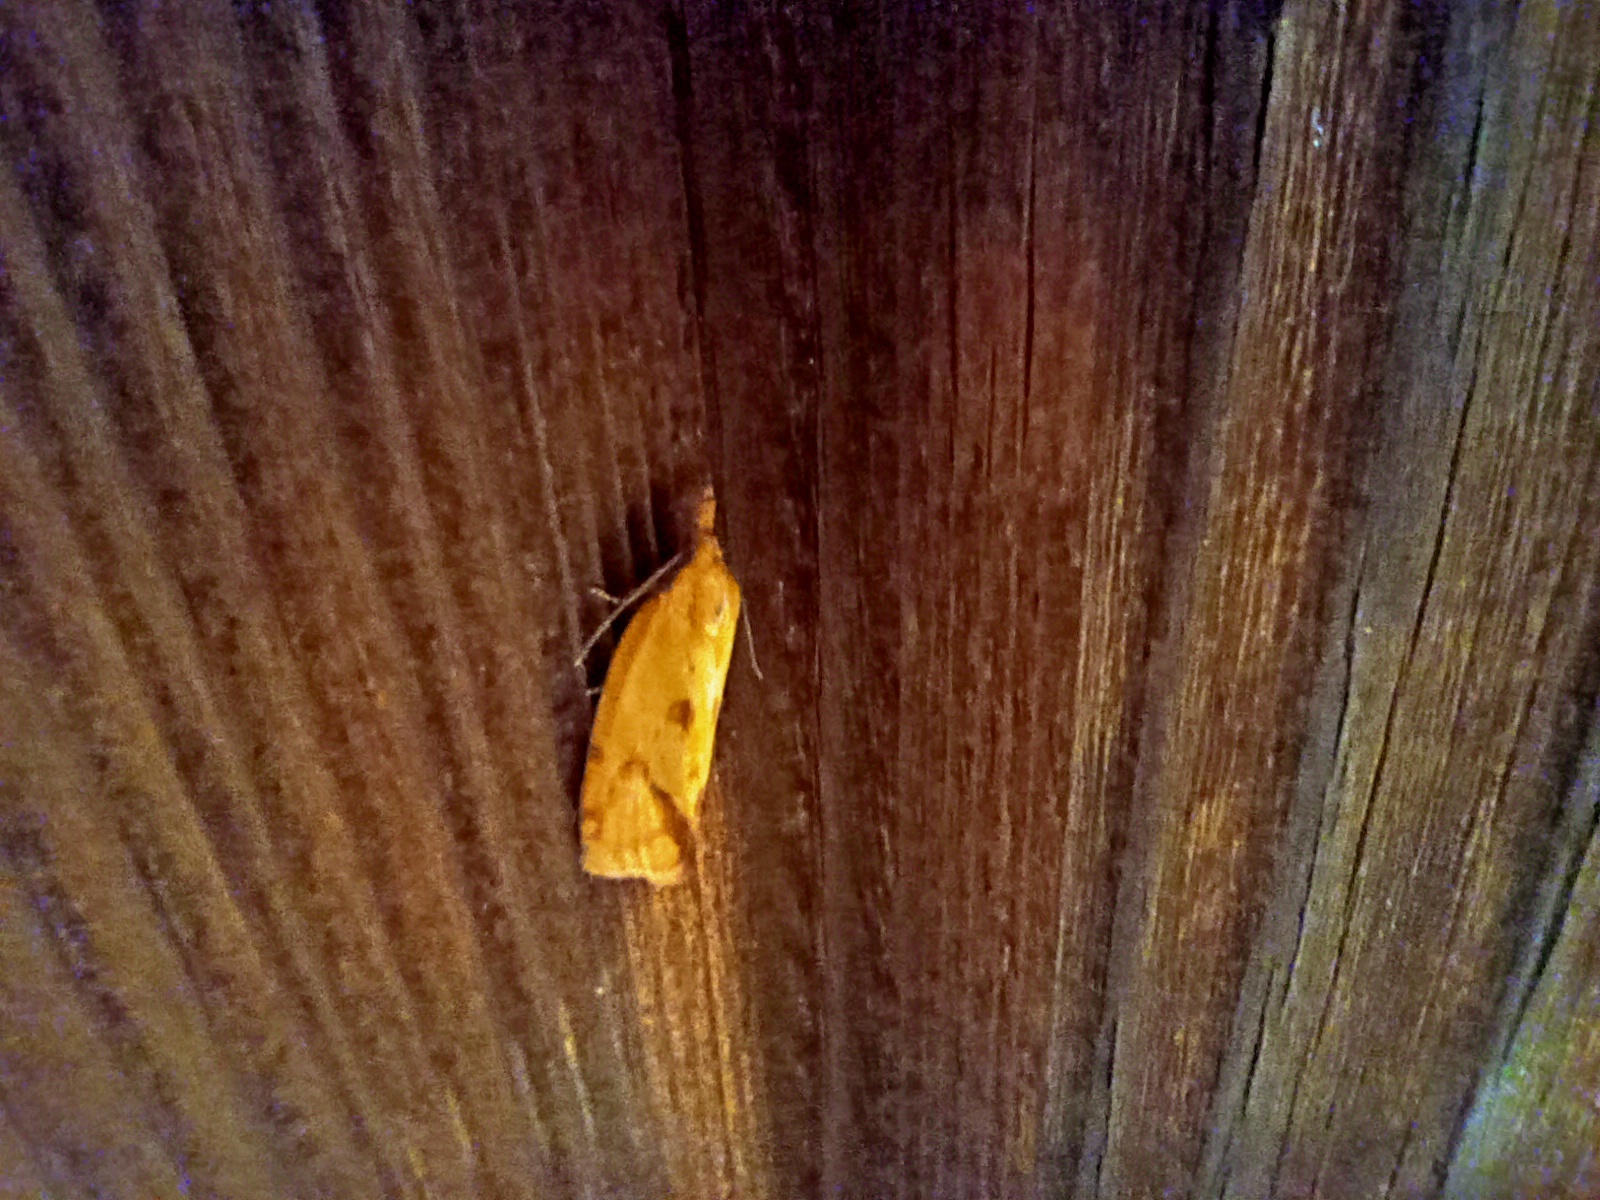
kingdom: Animalia
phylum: Arthropoda
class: Insecta
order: Lepidoptera
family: Tortricidae
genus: Agapeta
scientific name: Agapeta hamana
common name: Common yellow conch
